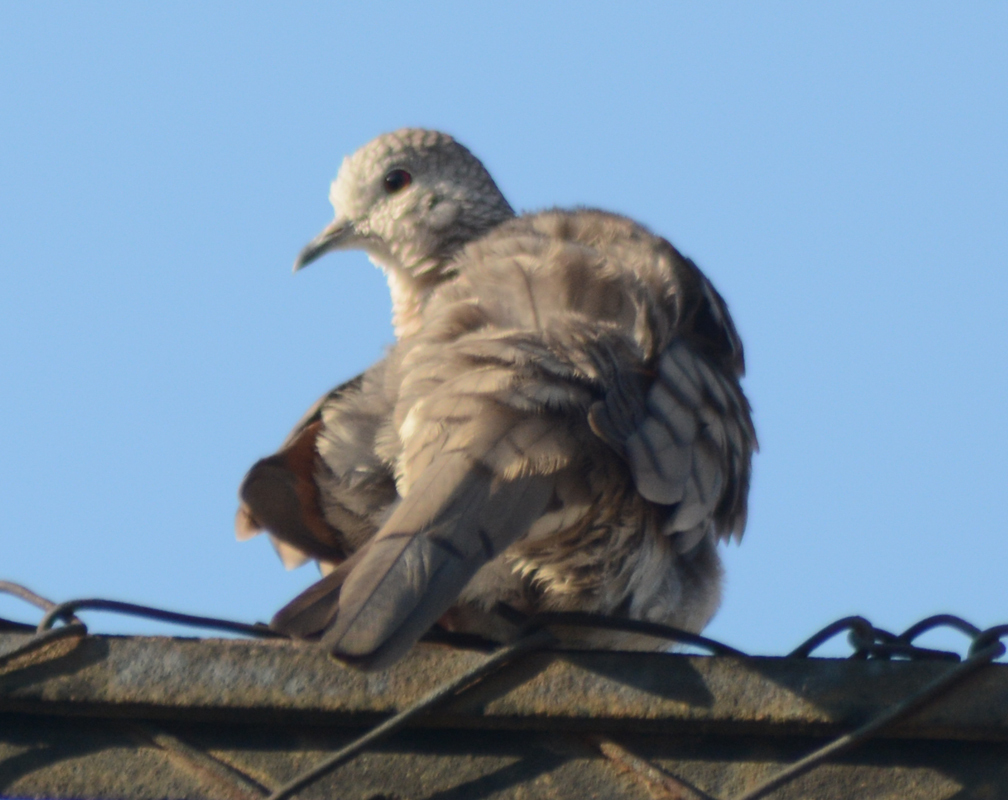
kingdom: Animalia
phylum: Chordata
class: Aves
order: Columbiformes
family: Columbidae
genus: Columbina
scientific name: Columbina inca
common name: Inca dove
